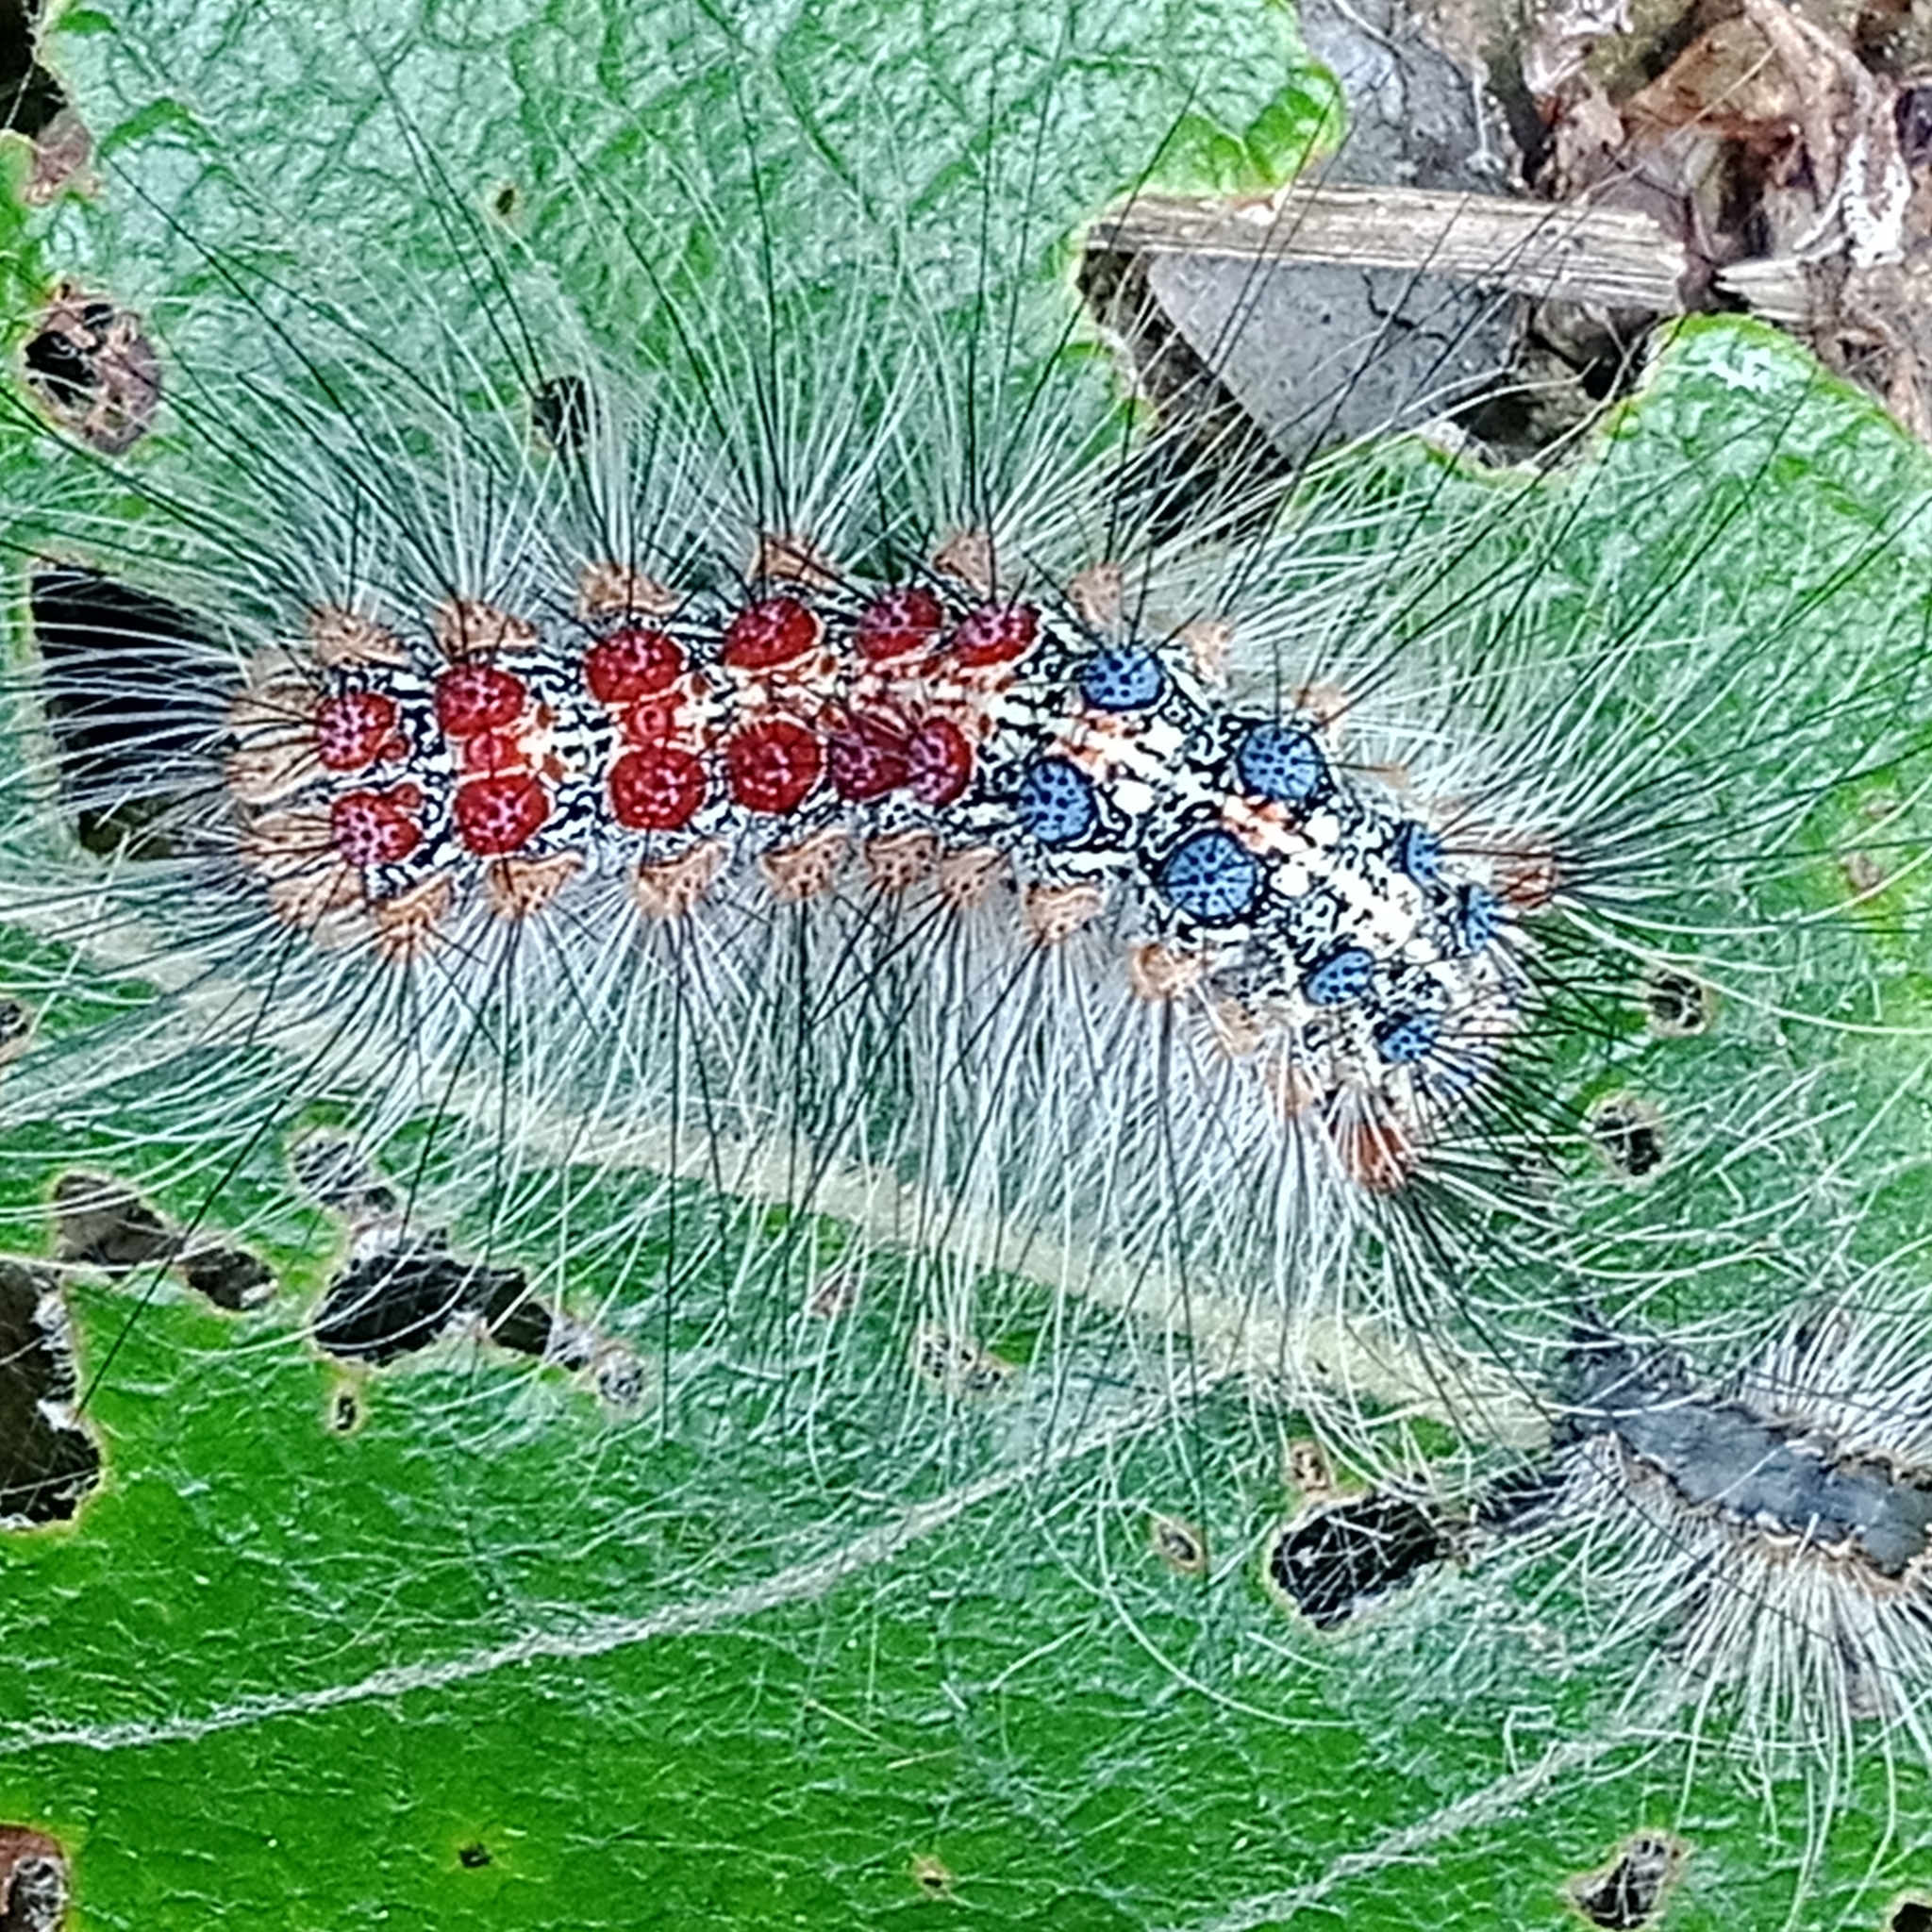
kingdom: Animalia
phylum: Arthropoda
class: Insecta
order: Lepidoptera
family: Erebidae
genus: Lymantria
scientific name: Lymantria dispar
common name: Gypsy moth
